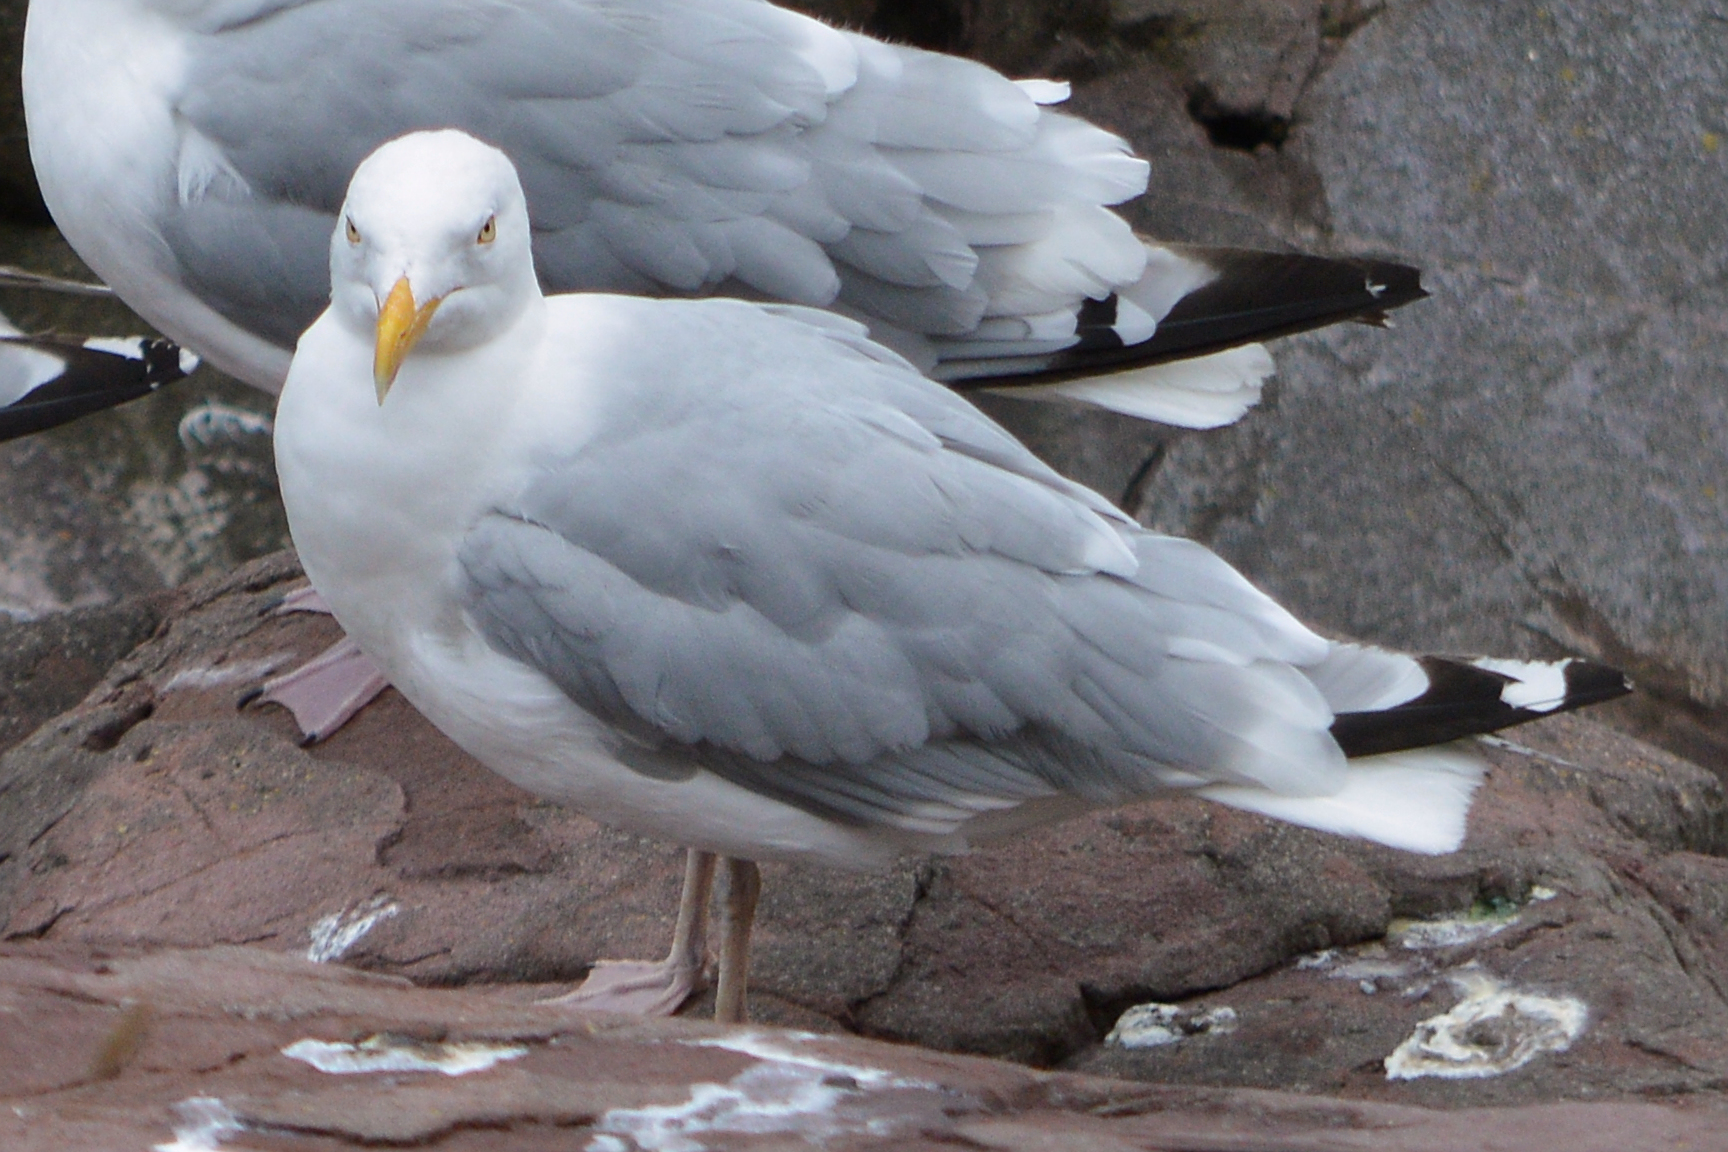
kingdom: Animalia
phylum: Chordata
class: Aves
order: Charadriiformes
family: Laridae
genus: Larus
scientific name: Larus argentatus
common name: Herring gull
